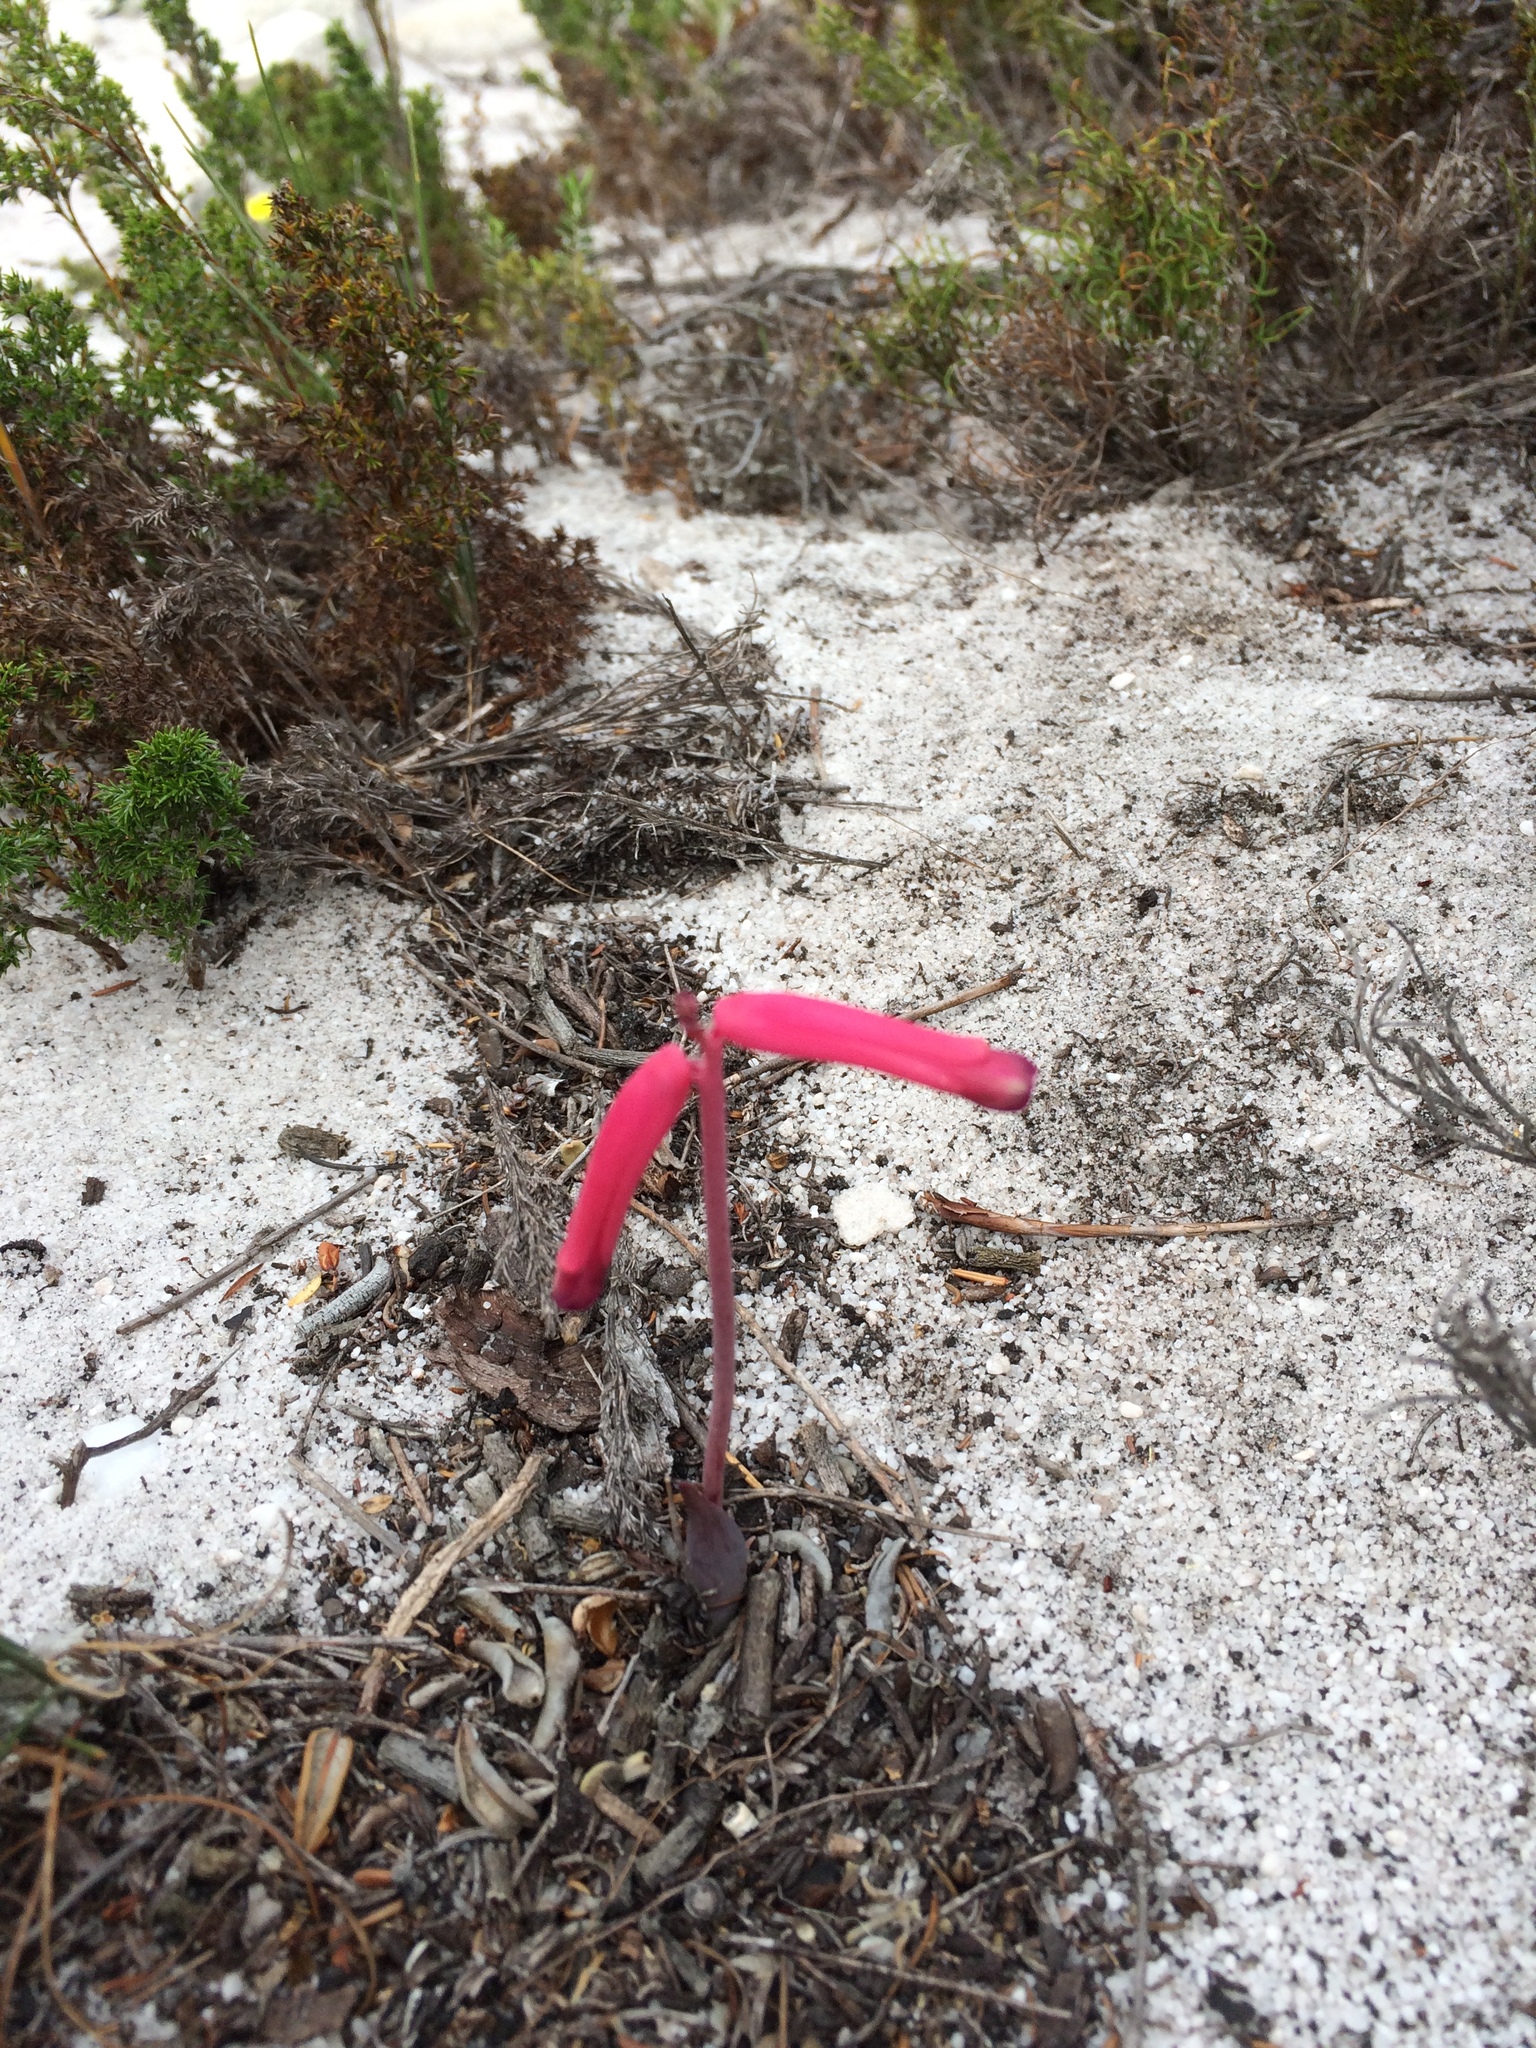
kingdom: Plantae
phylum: Tracheophyta
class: Liliopsida
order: Asparagales
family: Asparagaceae
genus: Lachenalia
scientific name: Lachenalia punctata
